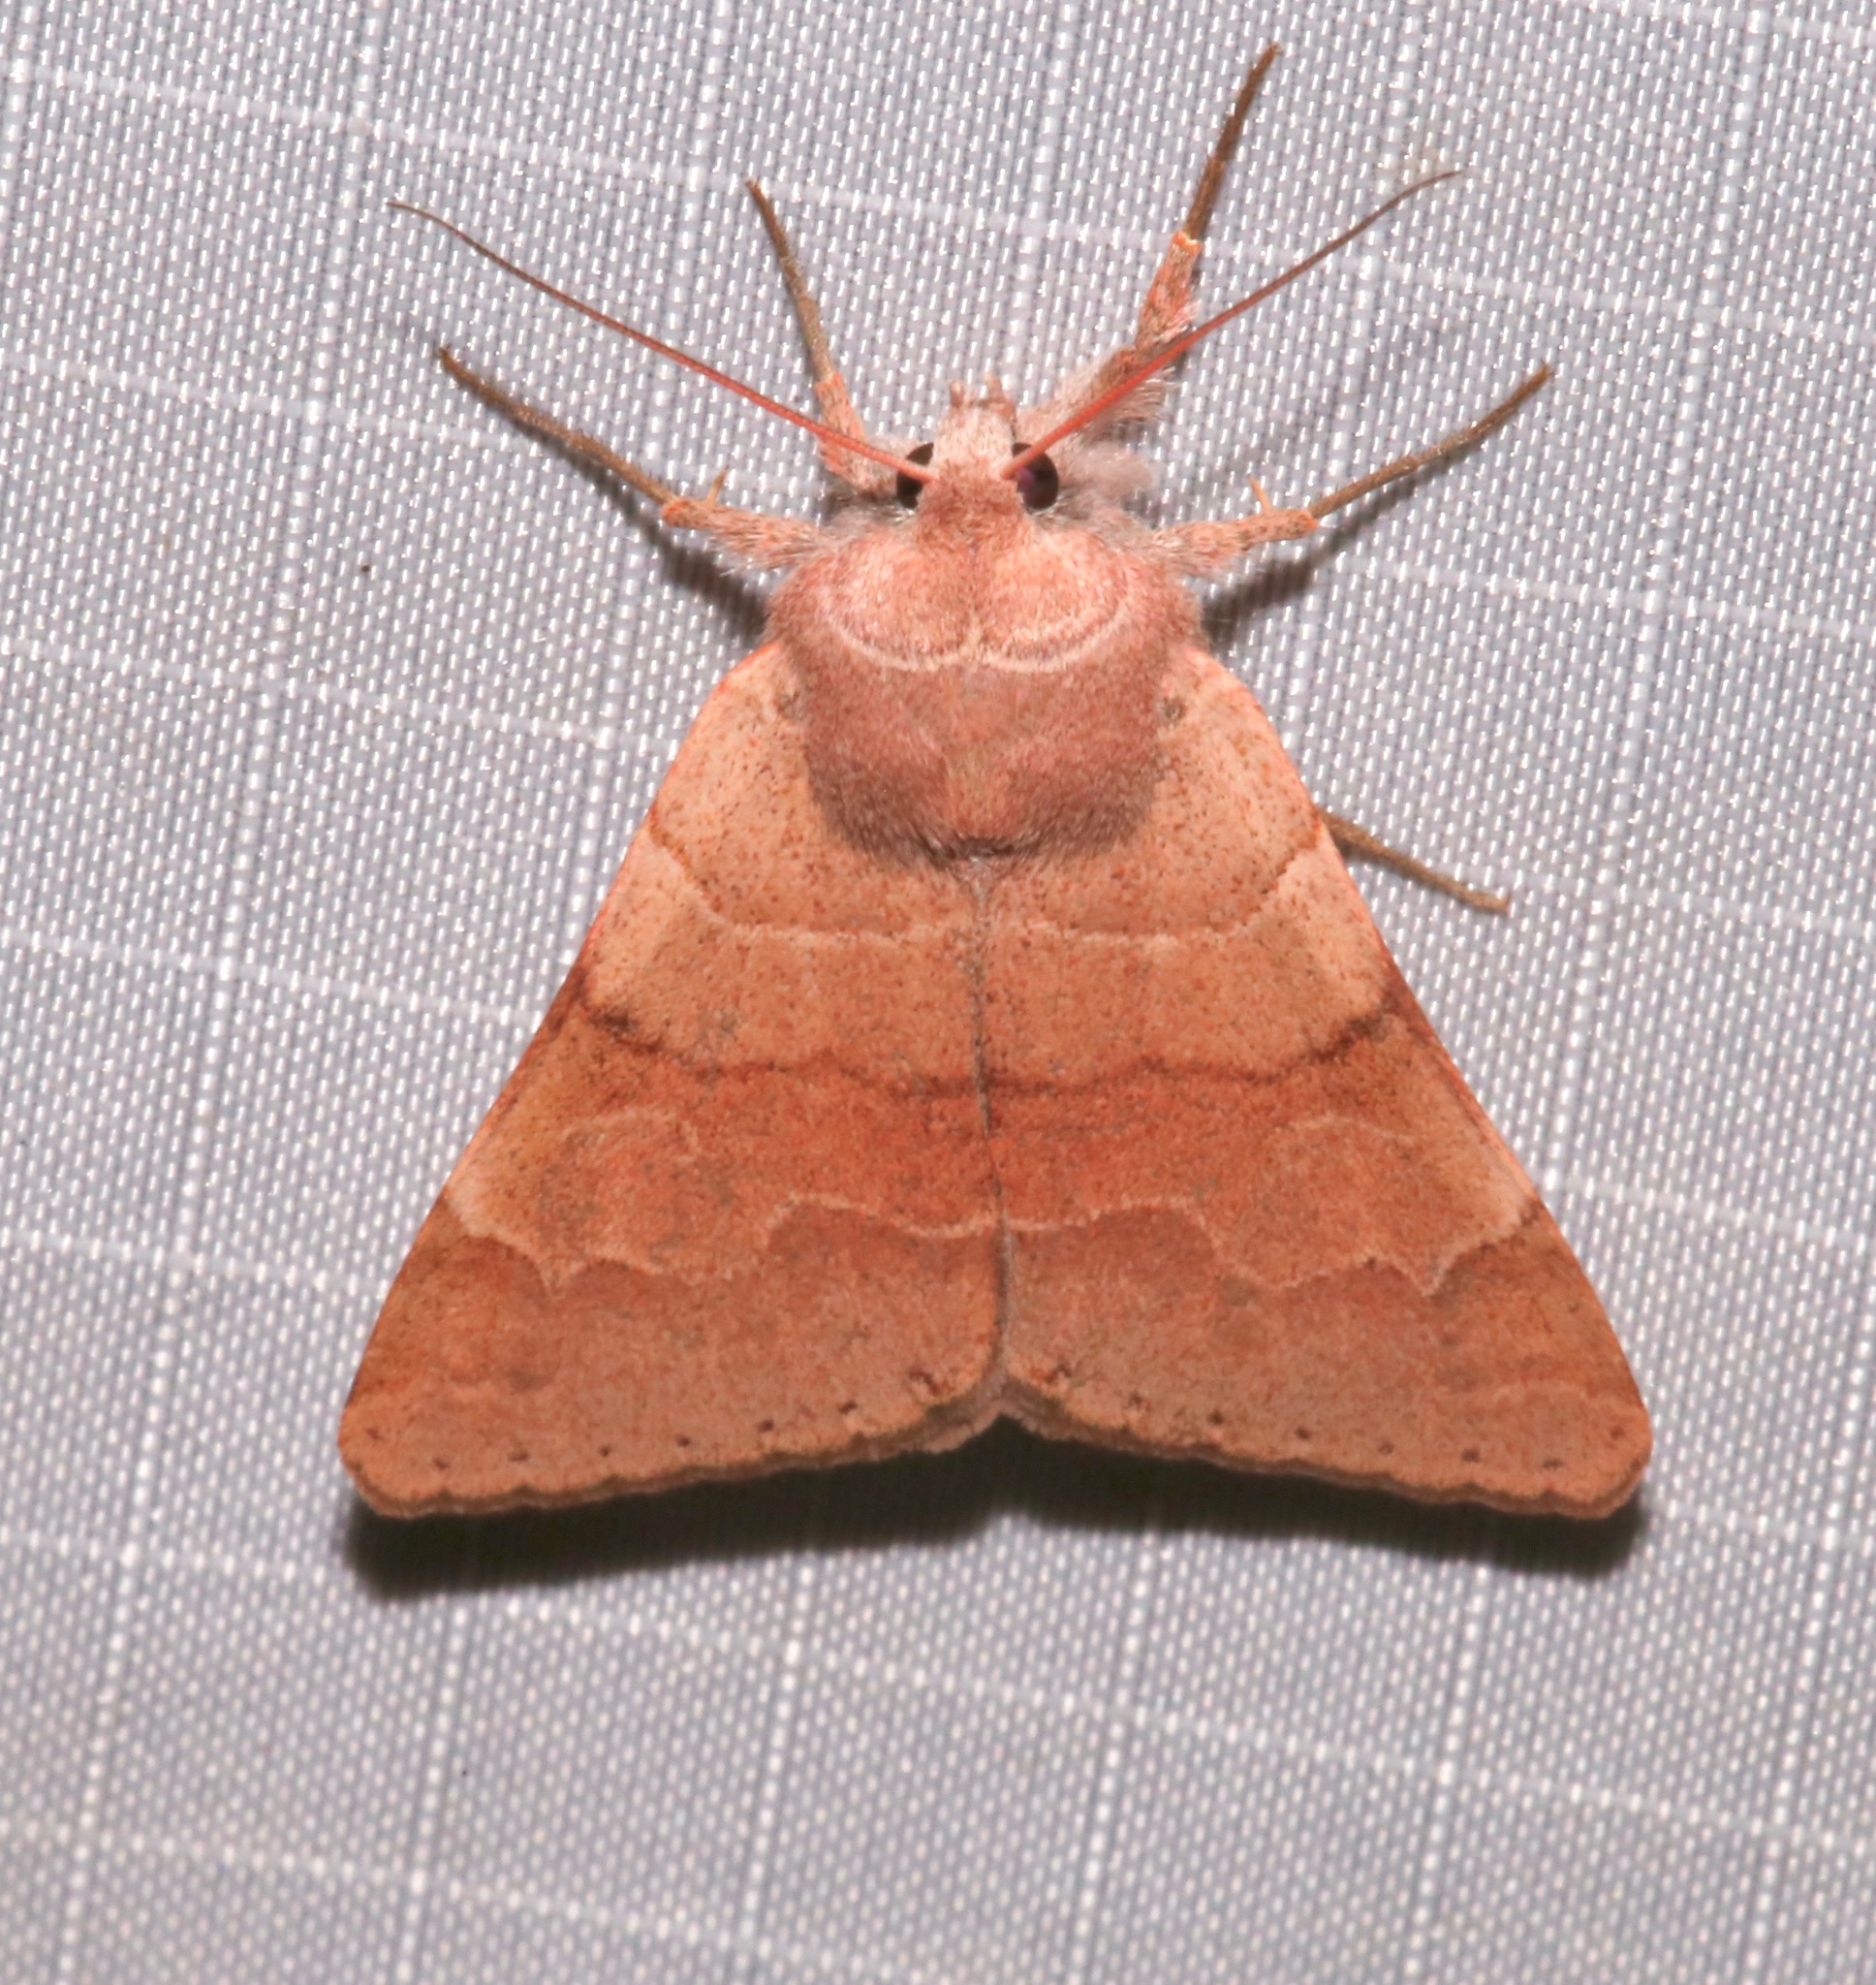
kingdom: Animalia
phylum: Arthropoda
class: Insecta
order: Lepidoptera
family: Erebidae
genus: Ulosyneda
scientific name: Ulosyneda valens
